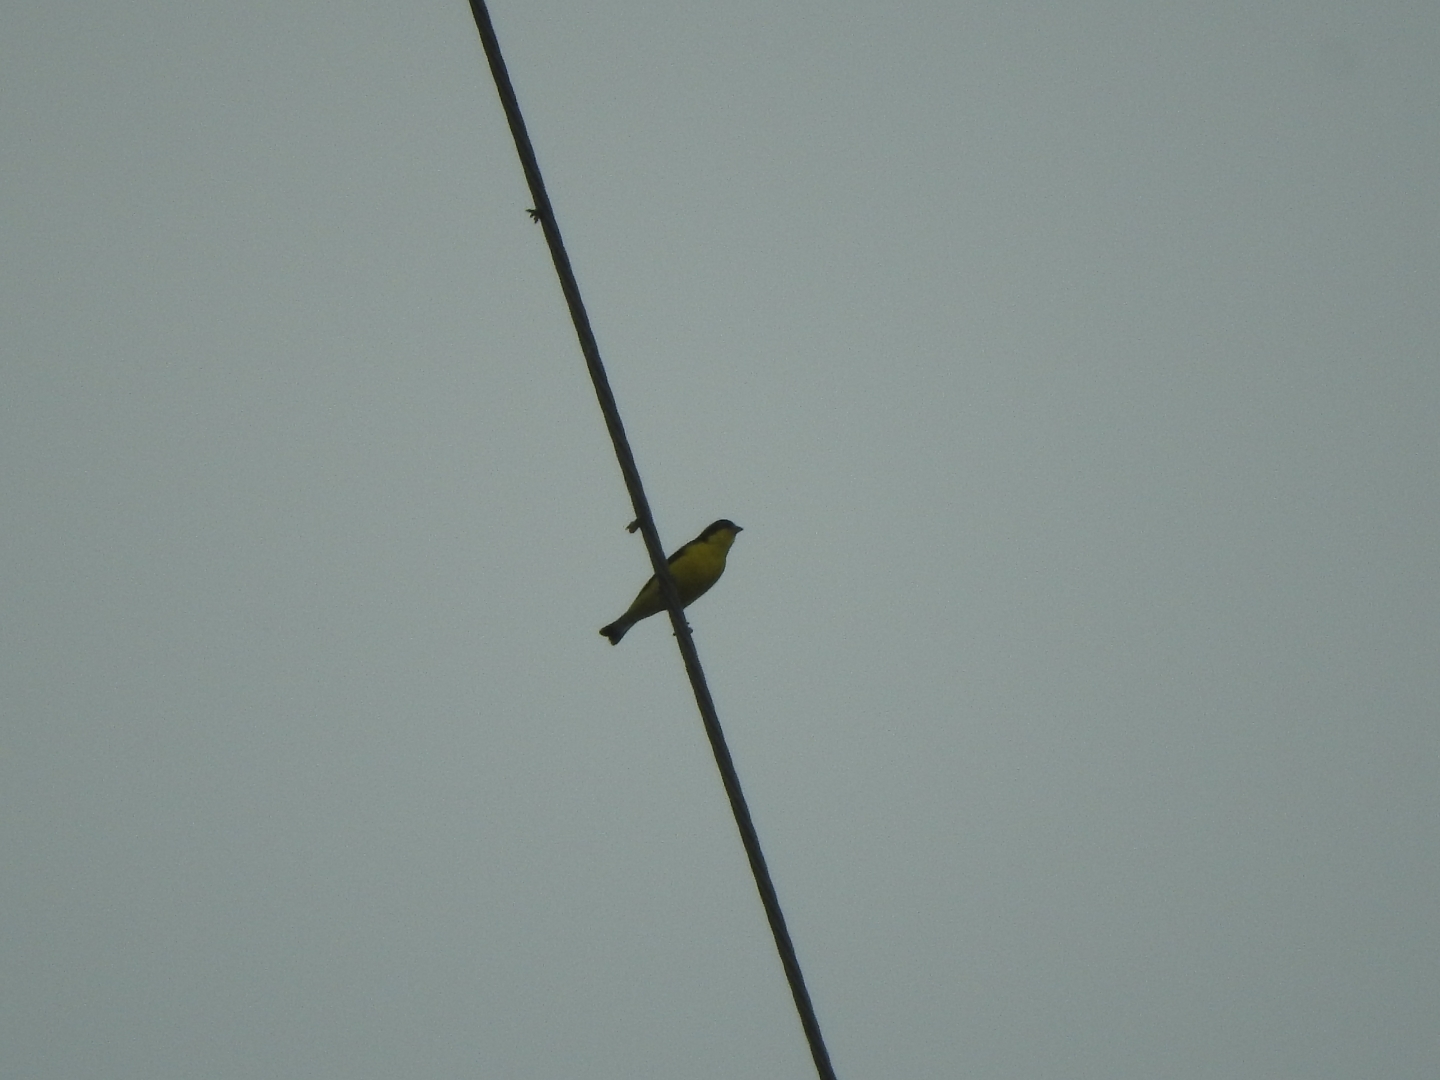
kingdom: Animalia
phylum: Chordata
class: Aves
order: Passeriformes
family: Fringillidae
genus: Spinus
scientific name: Spinus psaltria
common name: Lesser goldfinch
